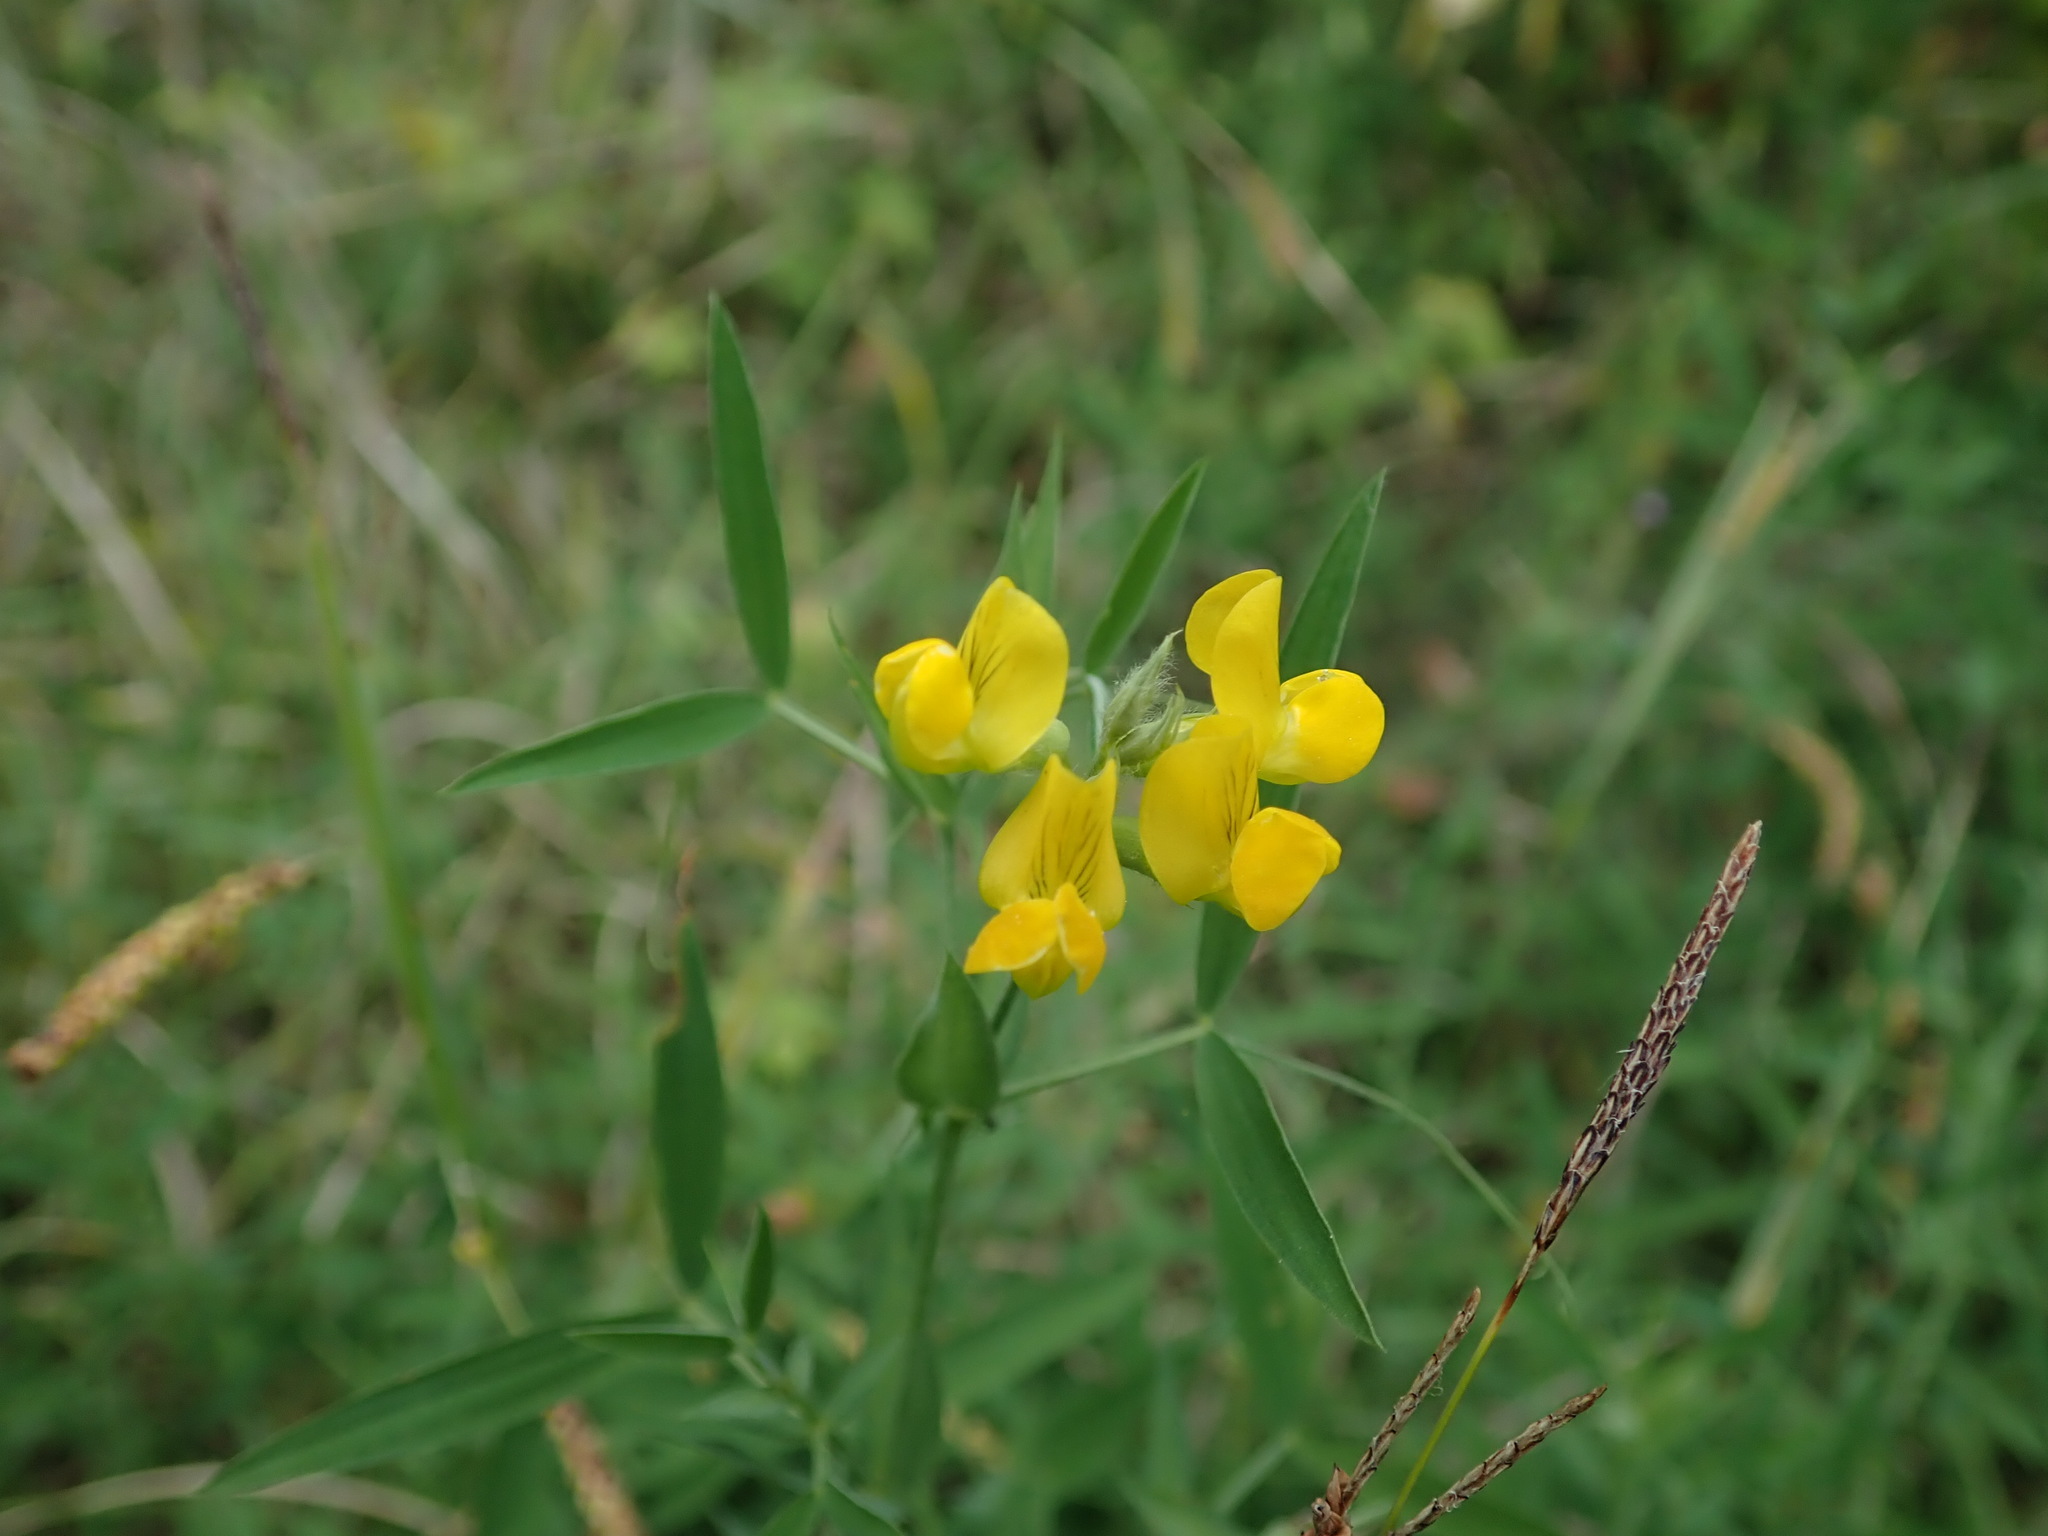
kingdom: Plantae
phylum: Tracheophyta
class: Magnoliopsida
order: Fabales
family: Fabaceae
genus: Lathyrus
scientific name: Lathyrus pratensis
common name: Meadow vetchling
